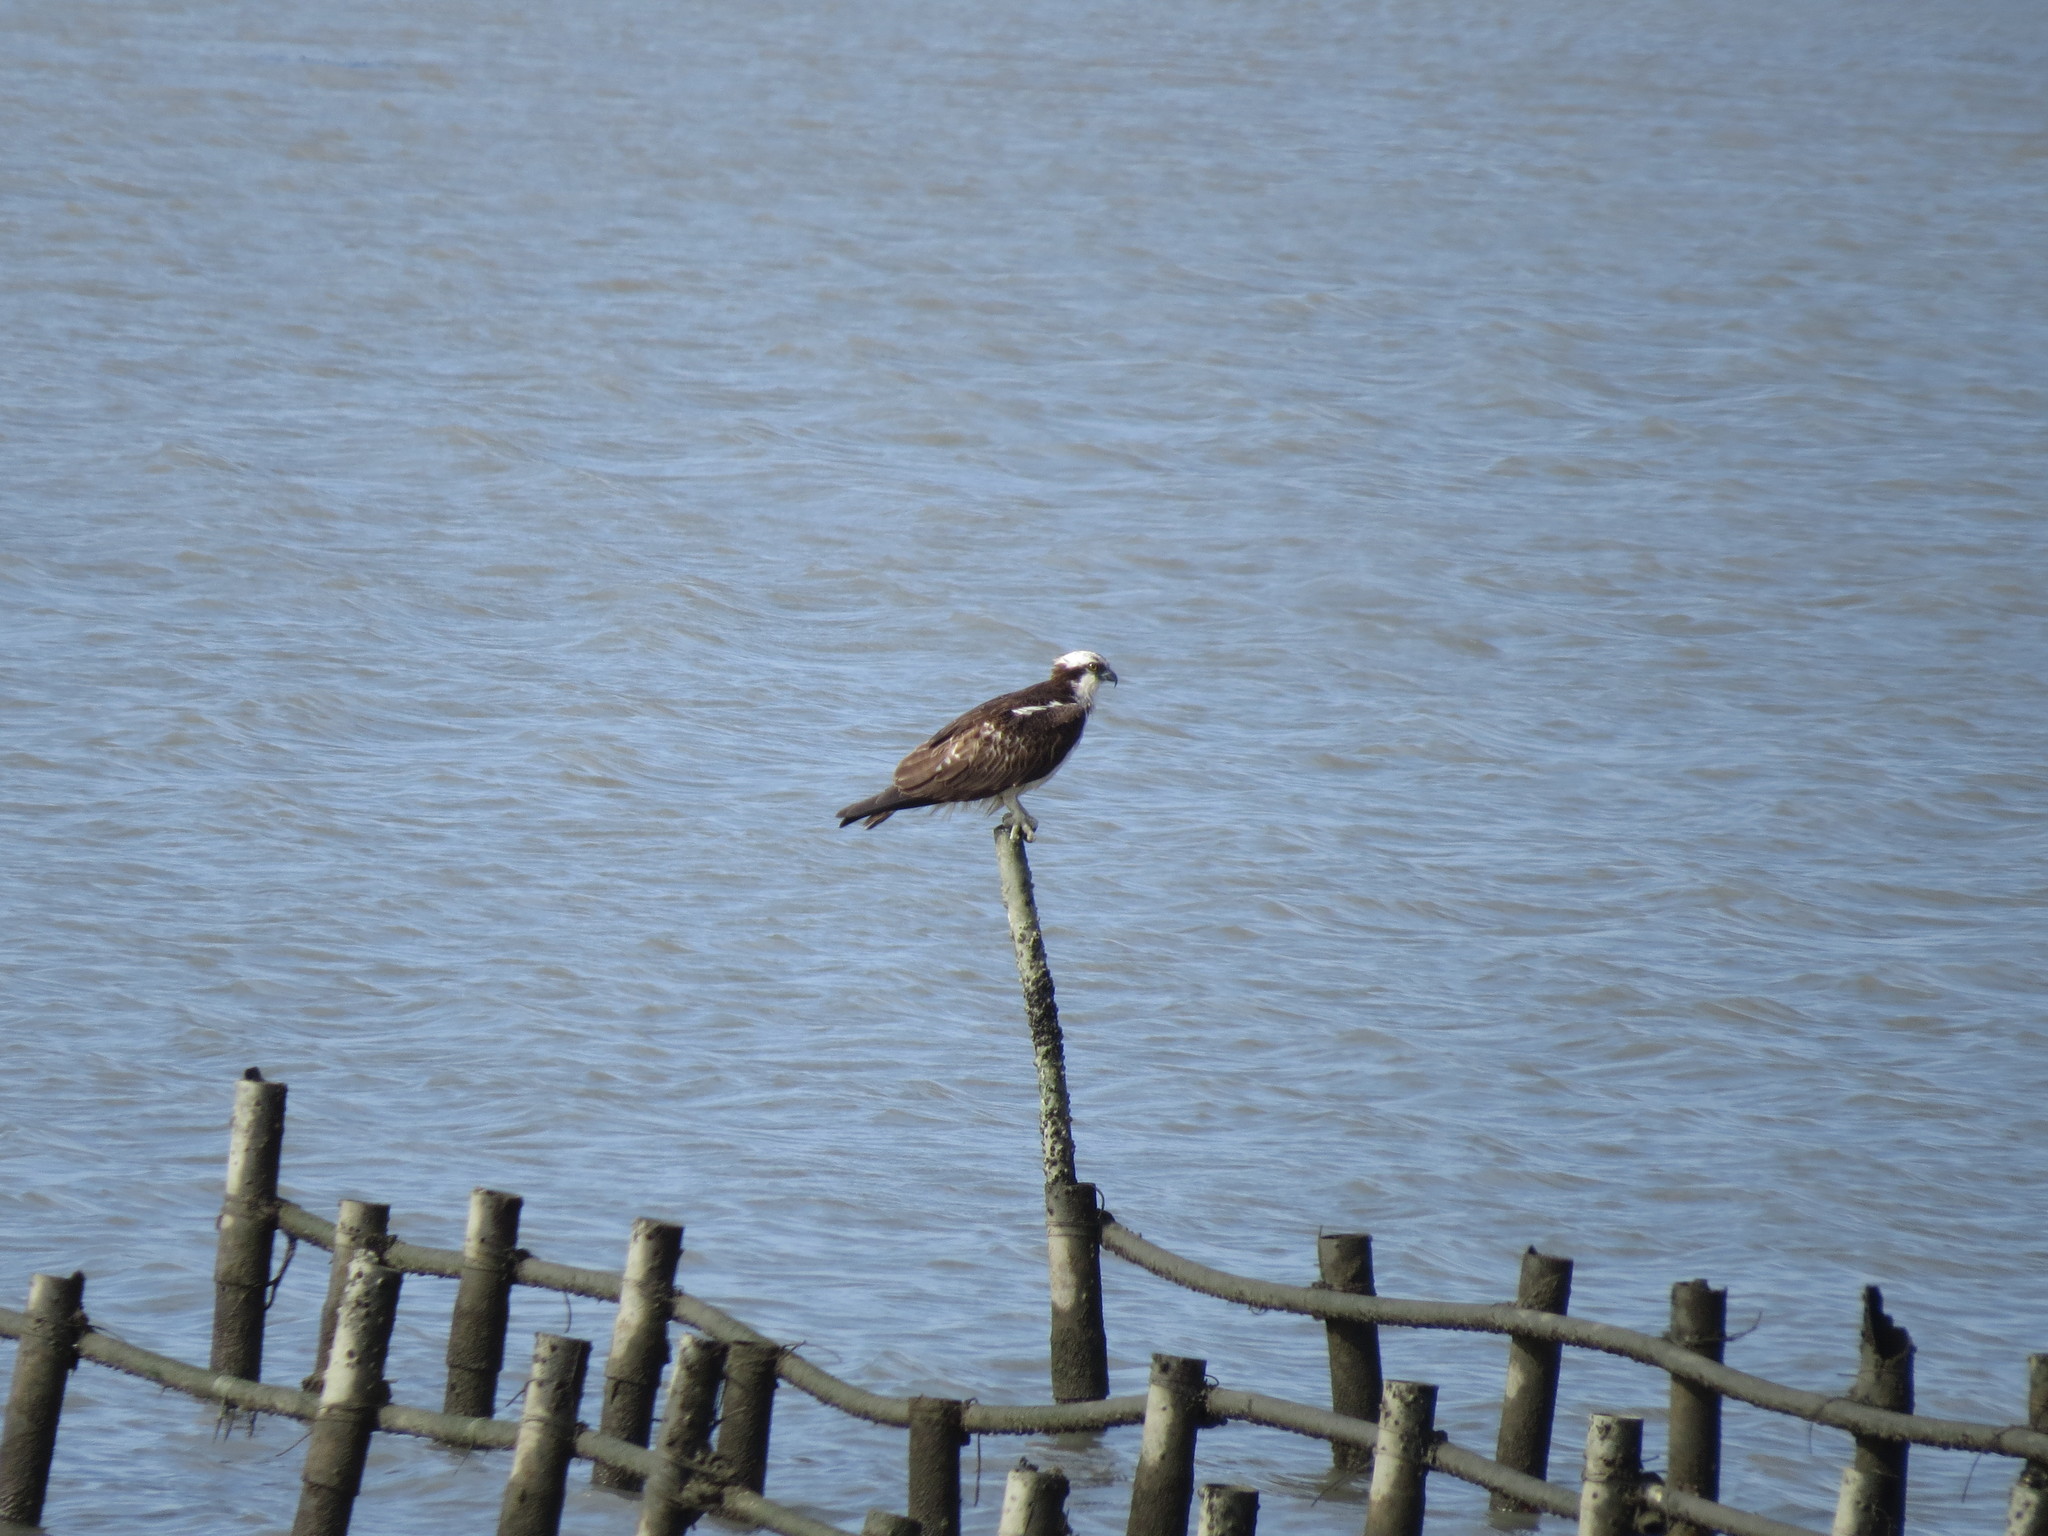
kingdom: Animalia
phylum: Chordata
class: Aves
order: Accipitriformes
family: Pandionidae
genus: Pandion
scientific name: Pandion haliaetus
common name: Osprey
